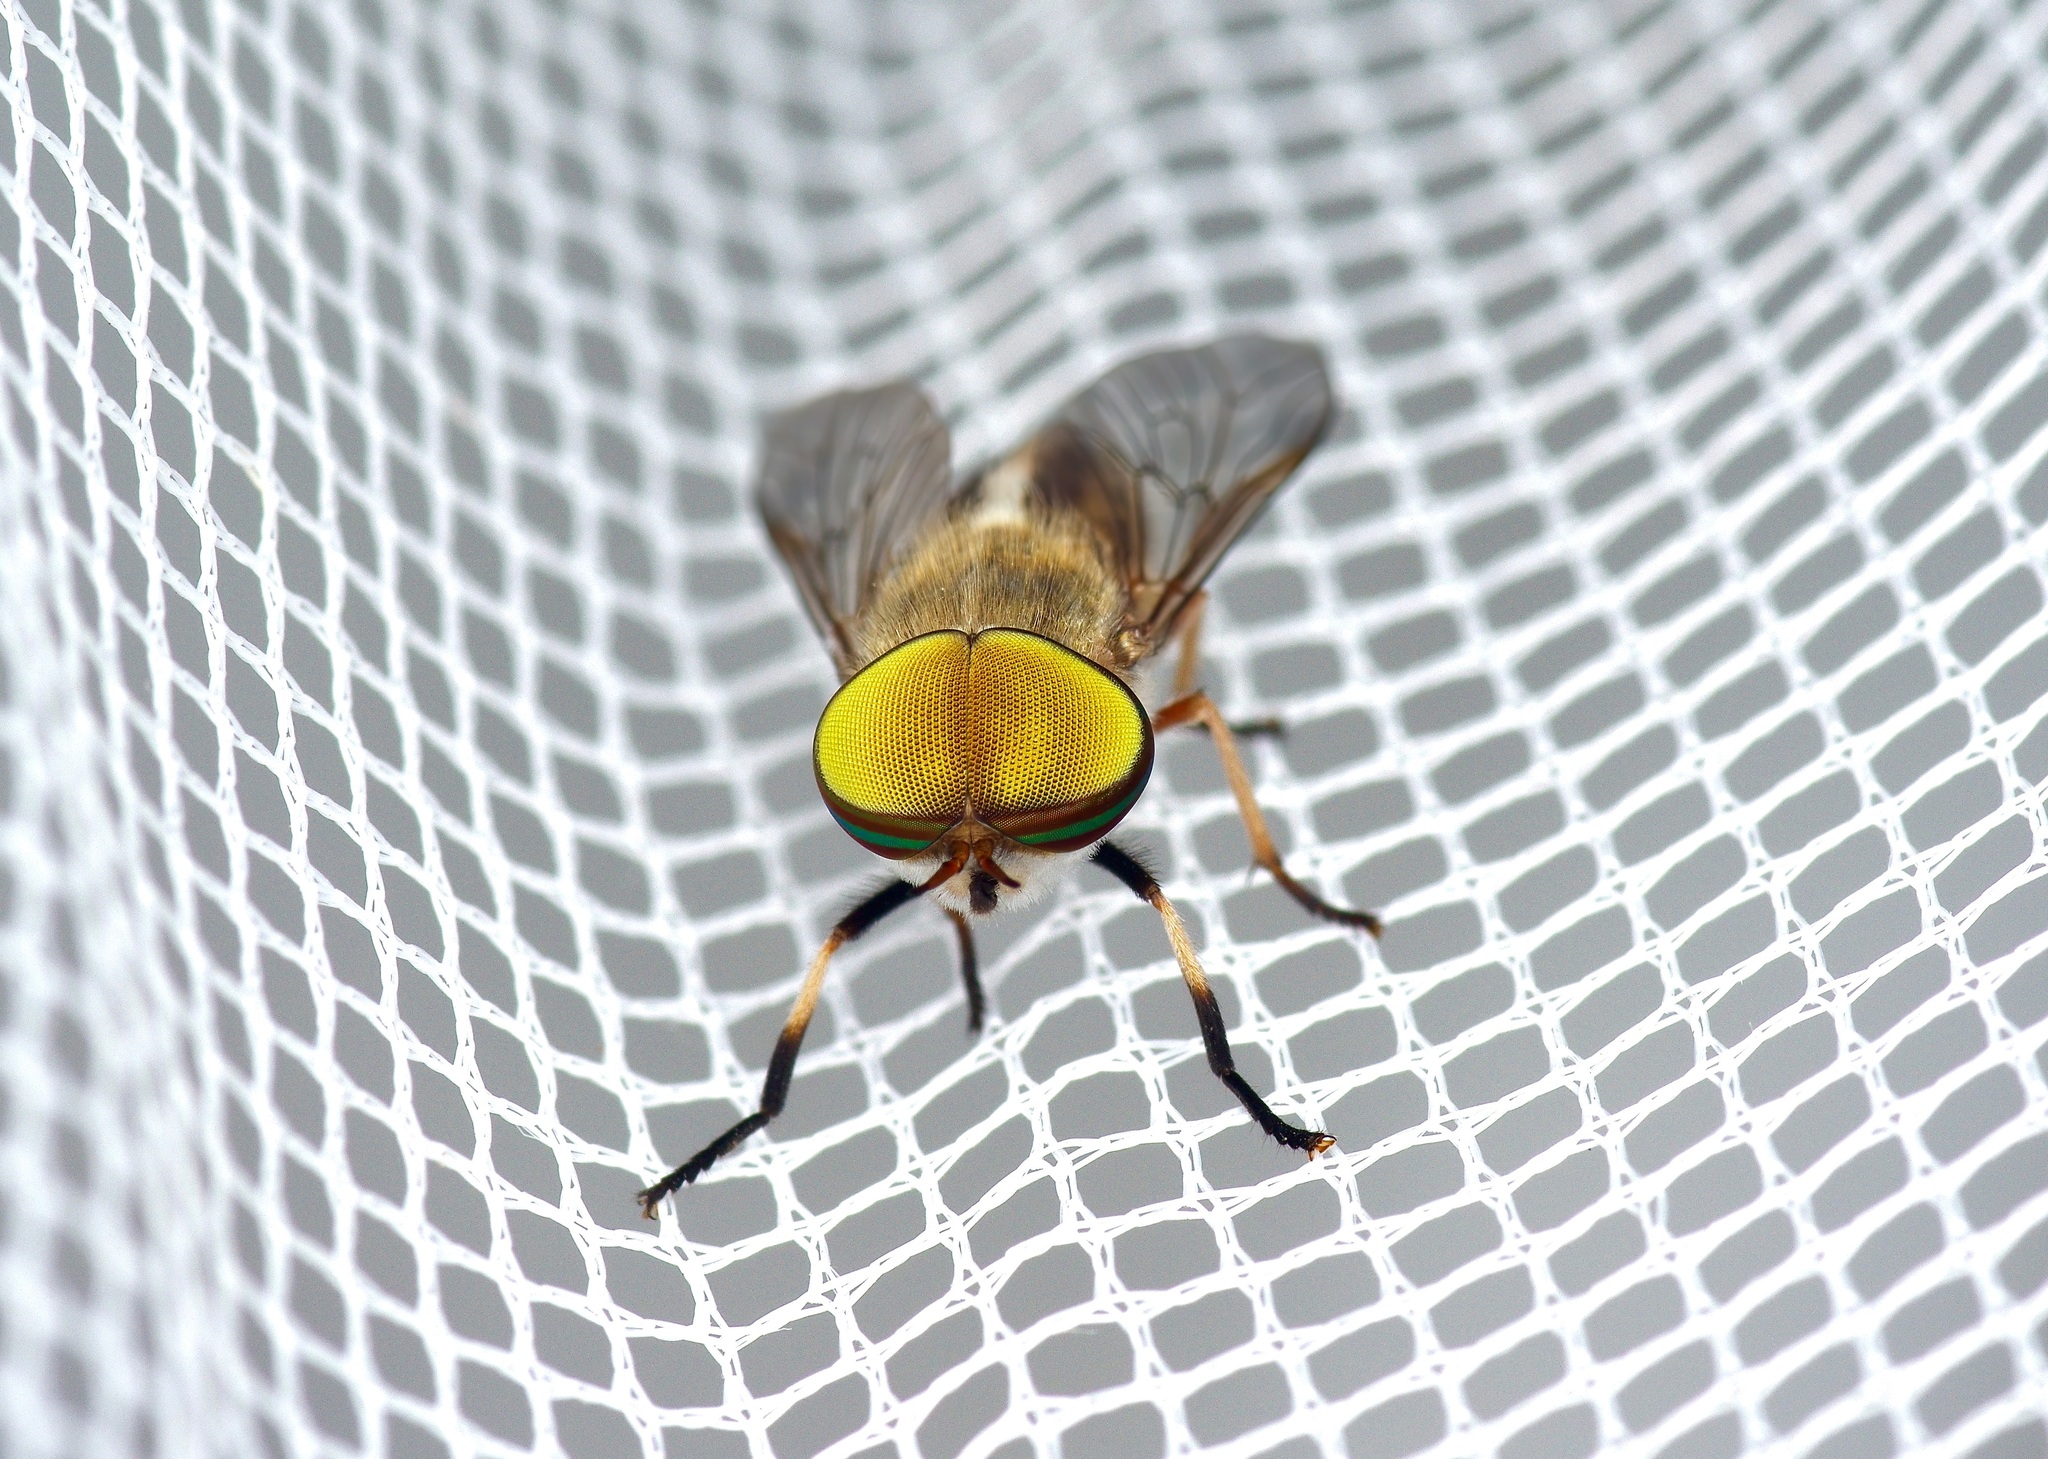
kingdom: Animalia
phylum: Arthropoda
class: Insecta
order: Diptera
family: Tabanidae
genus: Tabanus
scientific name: Tabanus lineola
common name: Striped horse fly
